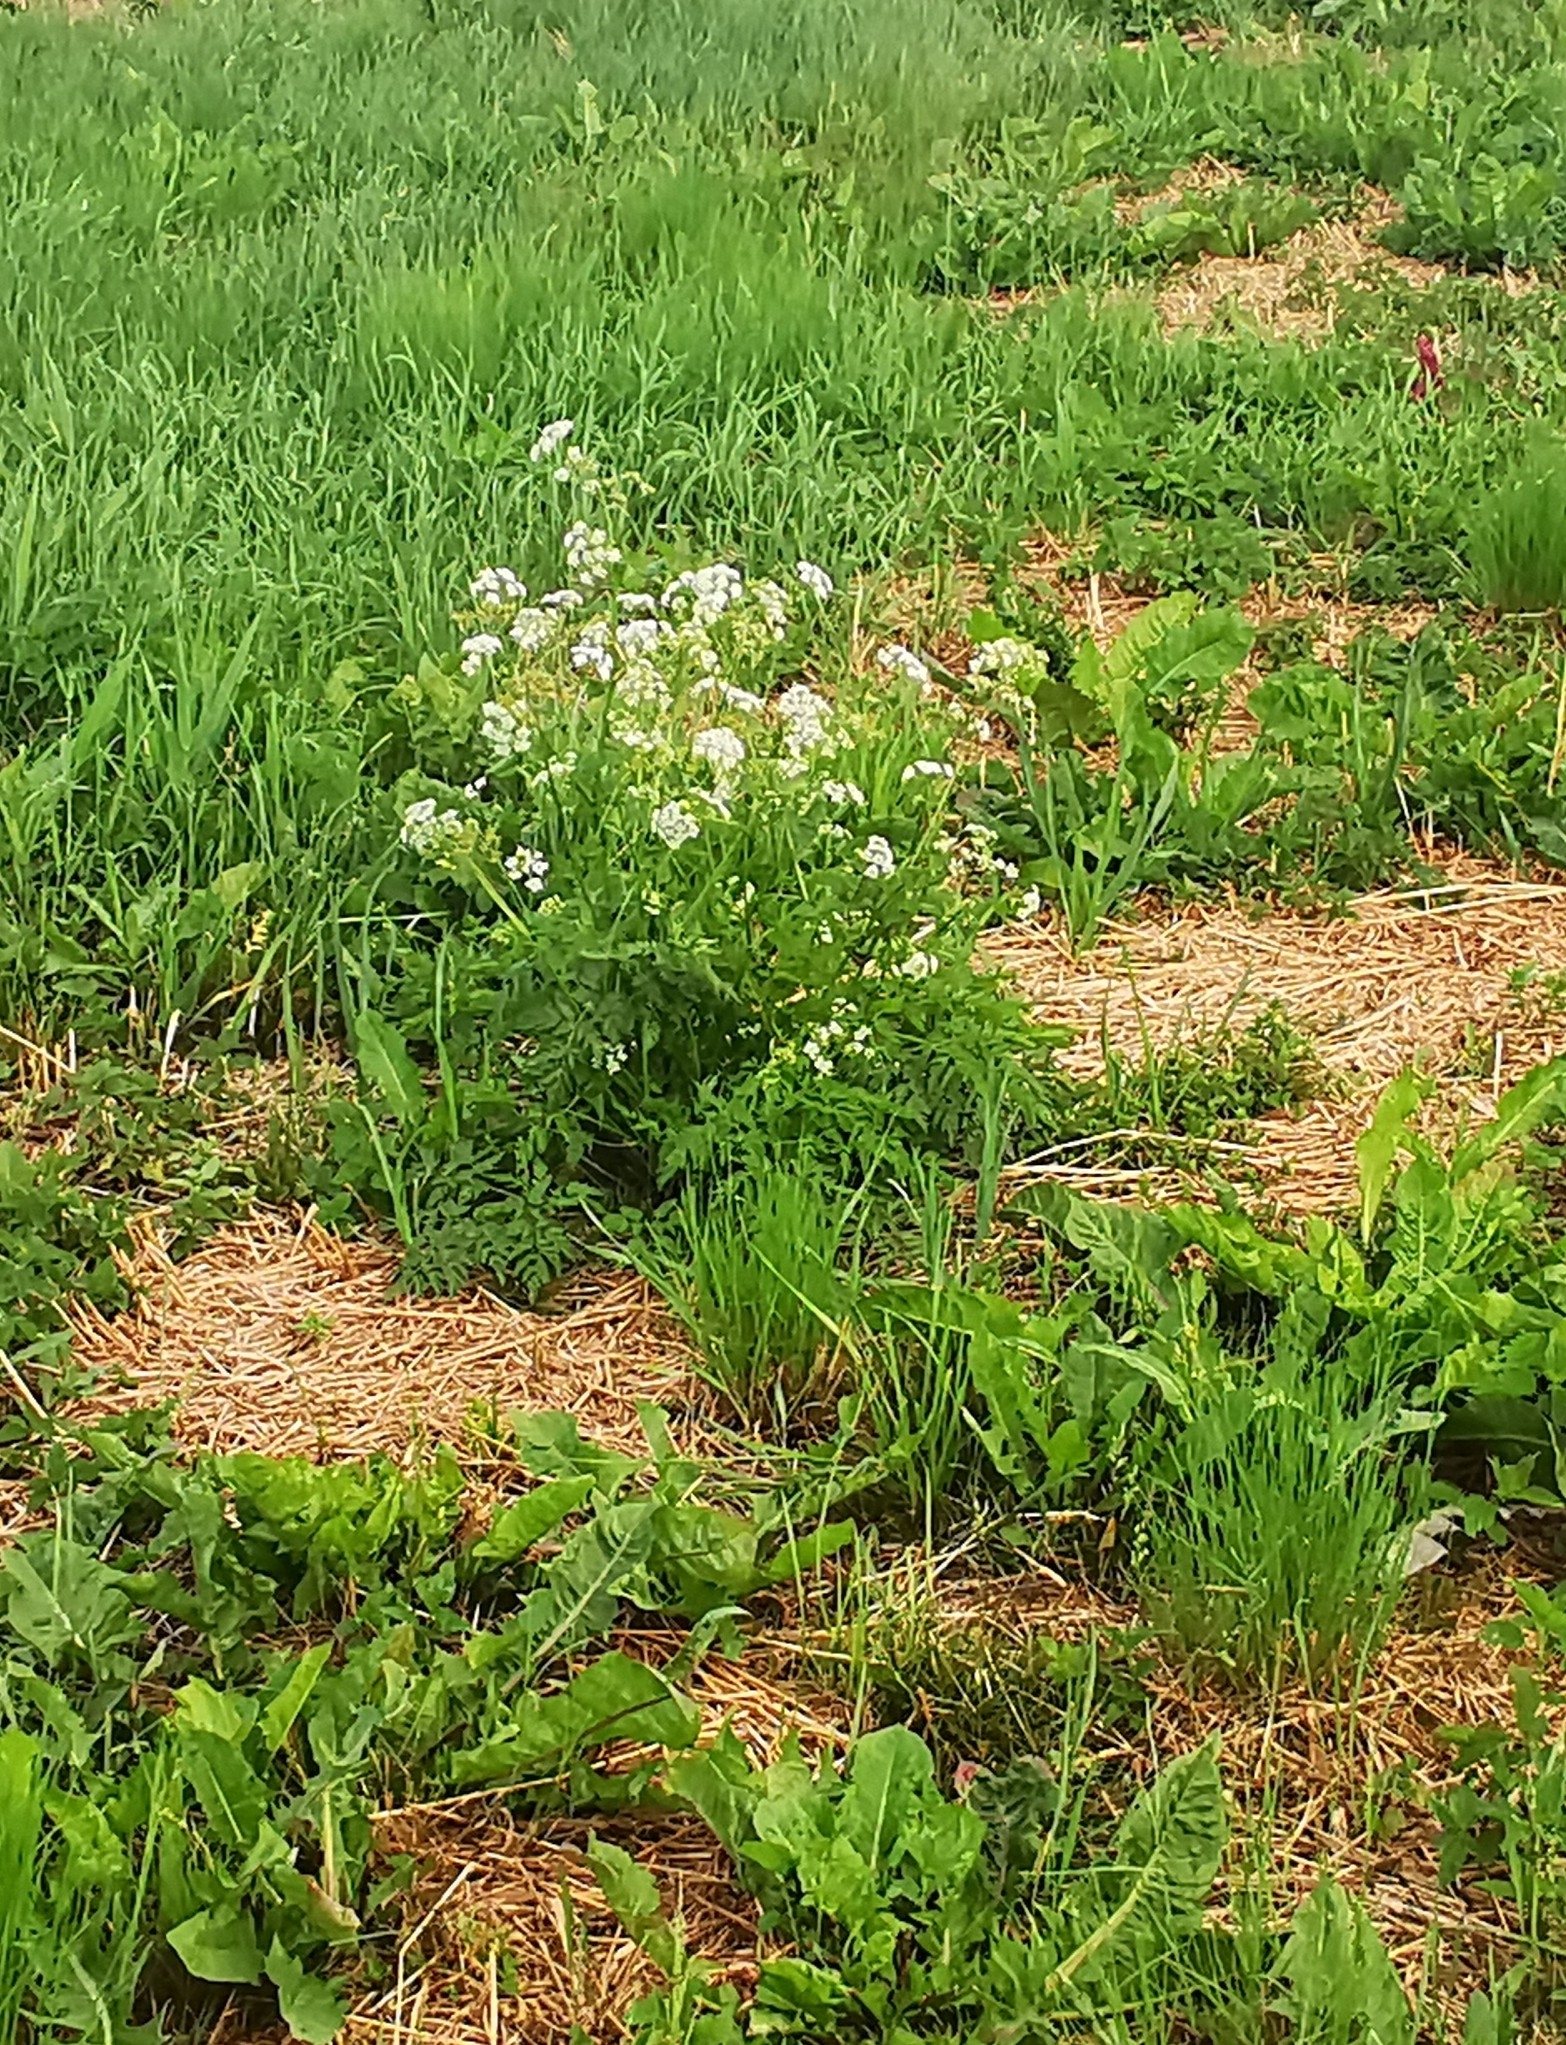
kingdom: Plantae
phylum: Tracheophyta
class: Magnoliopsida
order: Apiales
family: Apiaceae
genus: Anthriscus
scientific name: Anthriscus sylvestris
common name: Cow parsley
